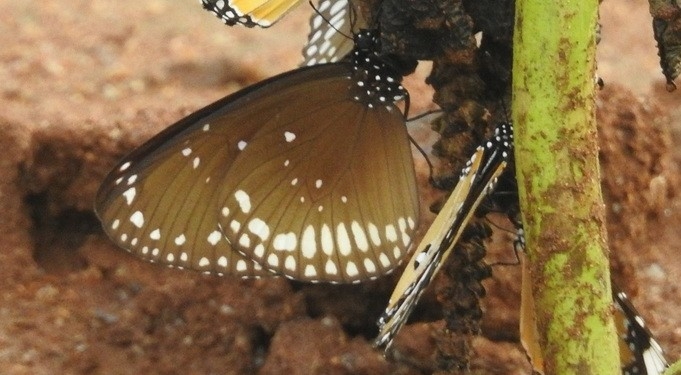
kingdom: Animalia
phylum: Arthropoda
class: Insecta
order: Lepidoptera
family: Nymphalidae
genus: Euploea
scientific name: Euploea sylvester
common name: Double-branded crow butterfly
